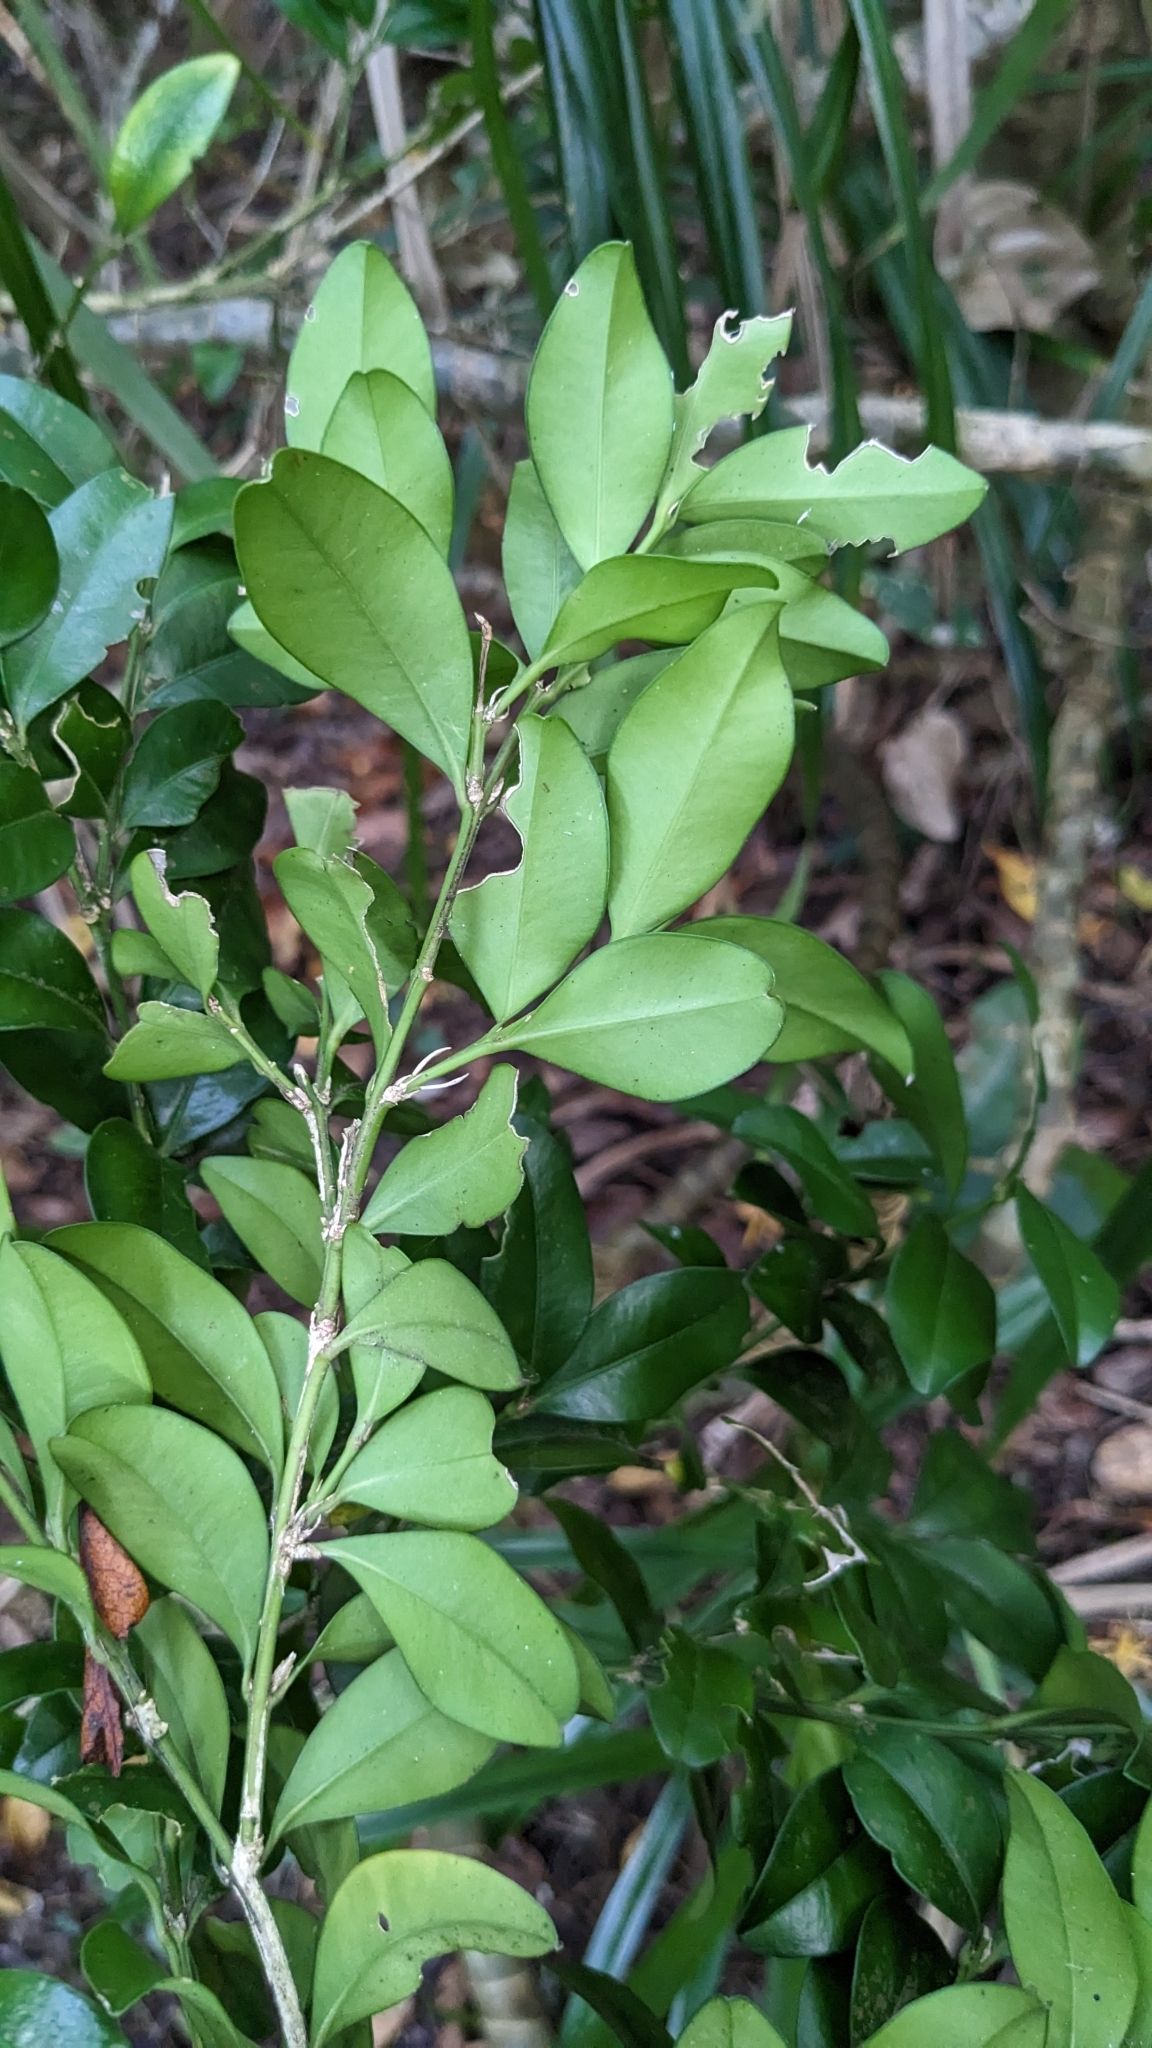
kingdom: Plantae
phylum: Tracheophyta
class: Magnoliopsida
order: Buxales
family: Buxaceae
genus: Buxus
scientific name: Buxus liukiuensis
